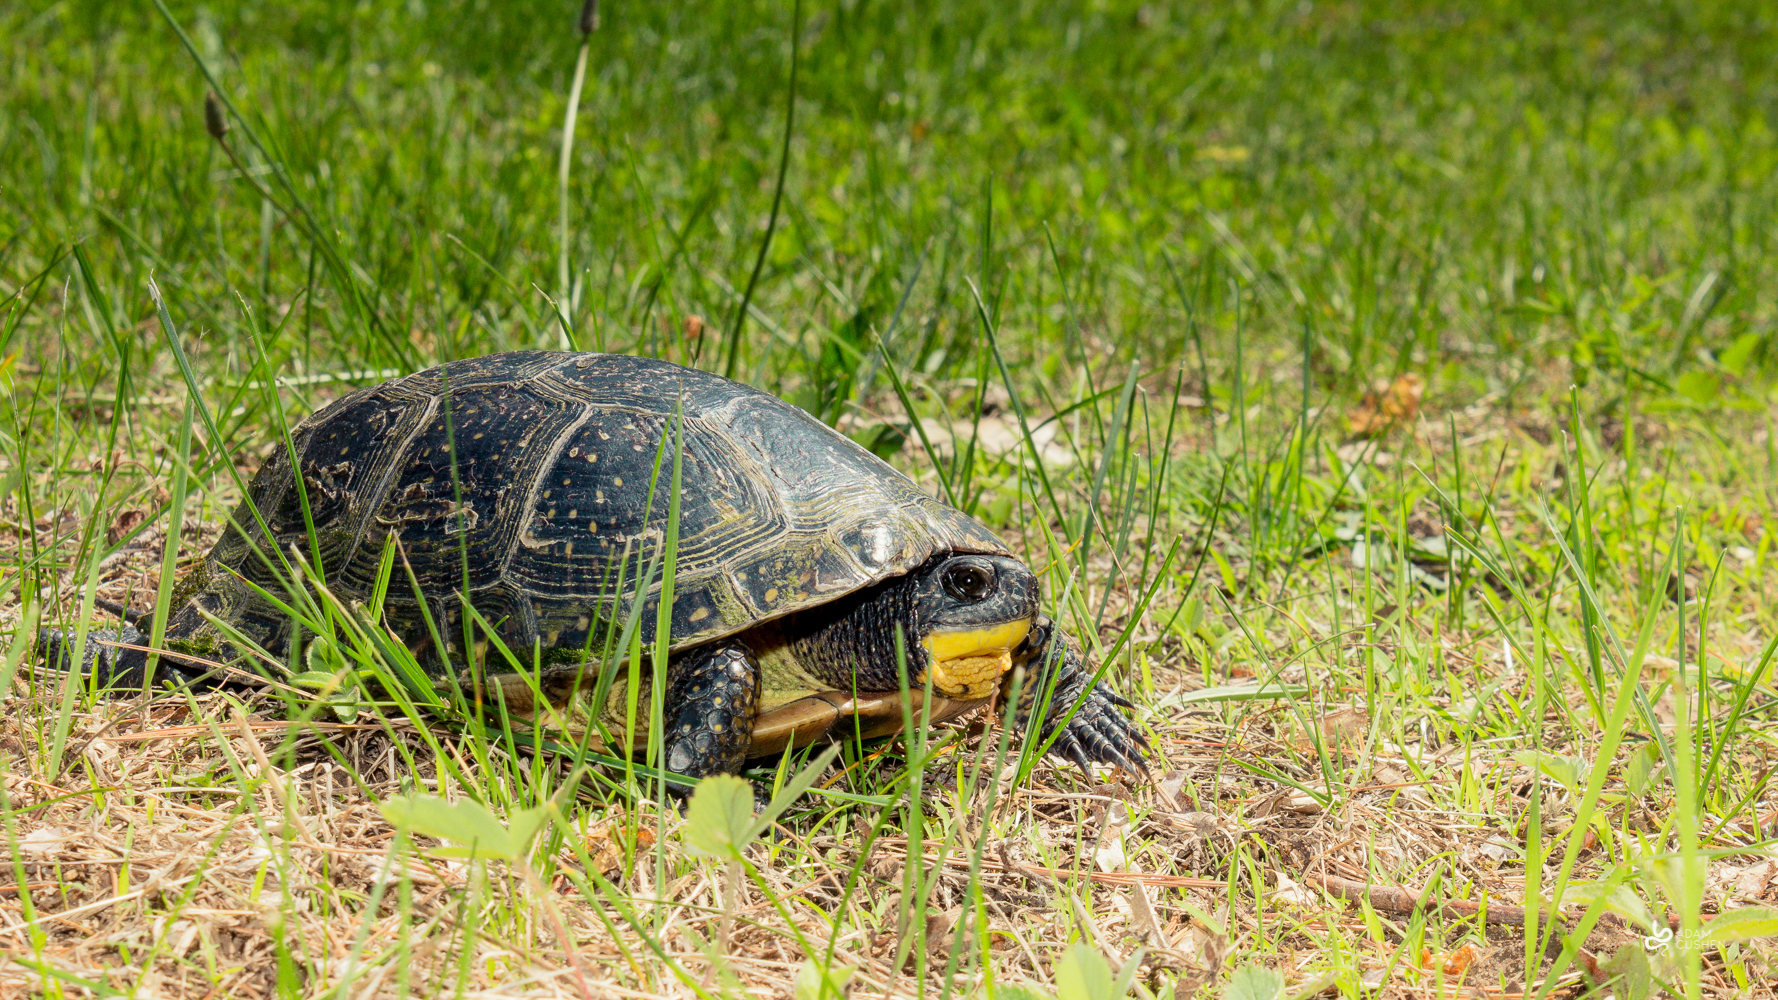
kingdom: Animalia
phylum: Chordata
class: Testudines
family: Emydidae
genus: Emys
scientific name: Emys blandingii
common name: Blanding's turtle
